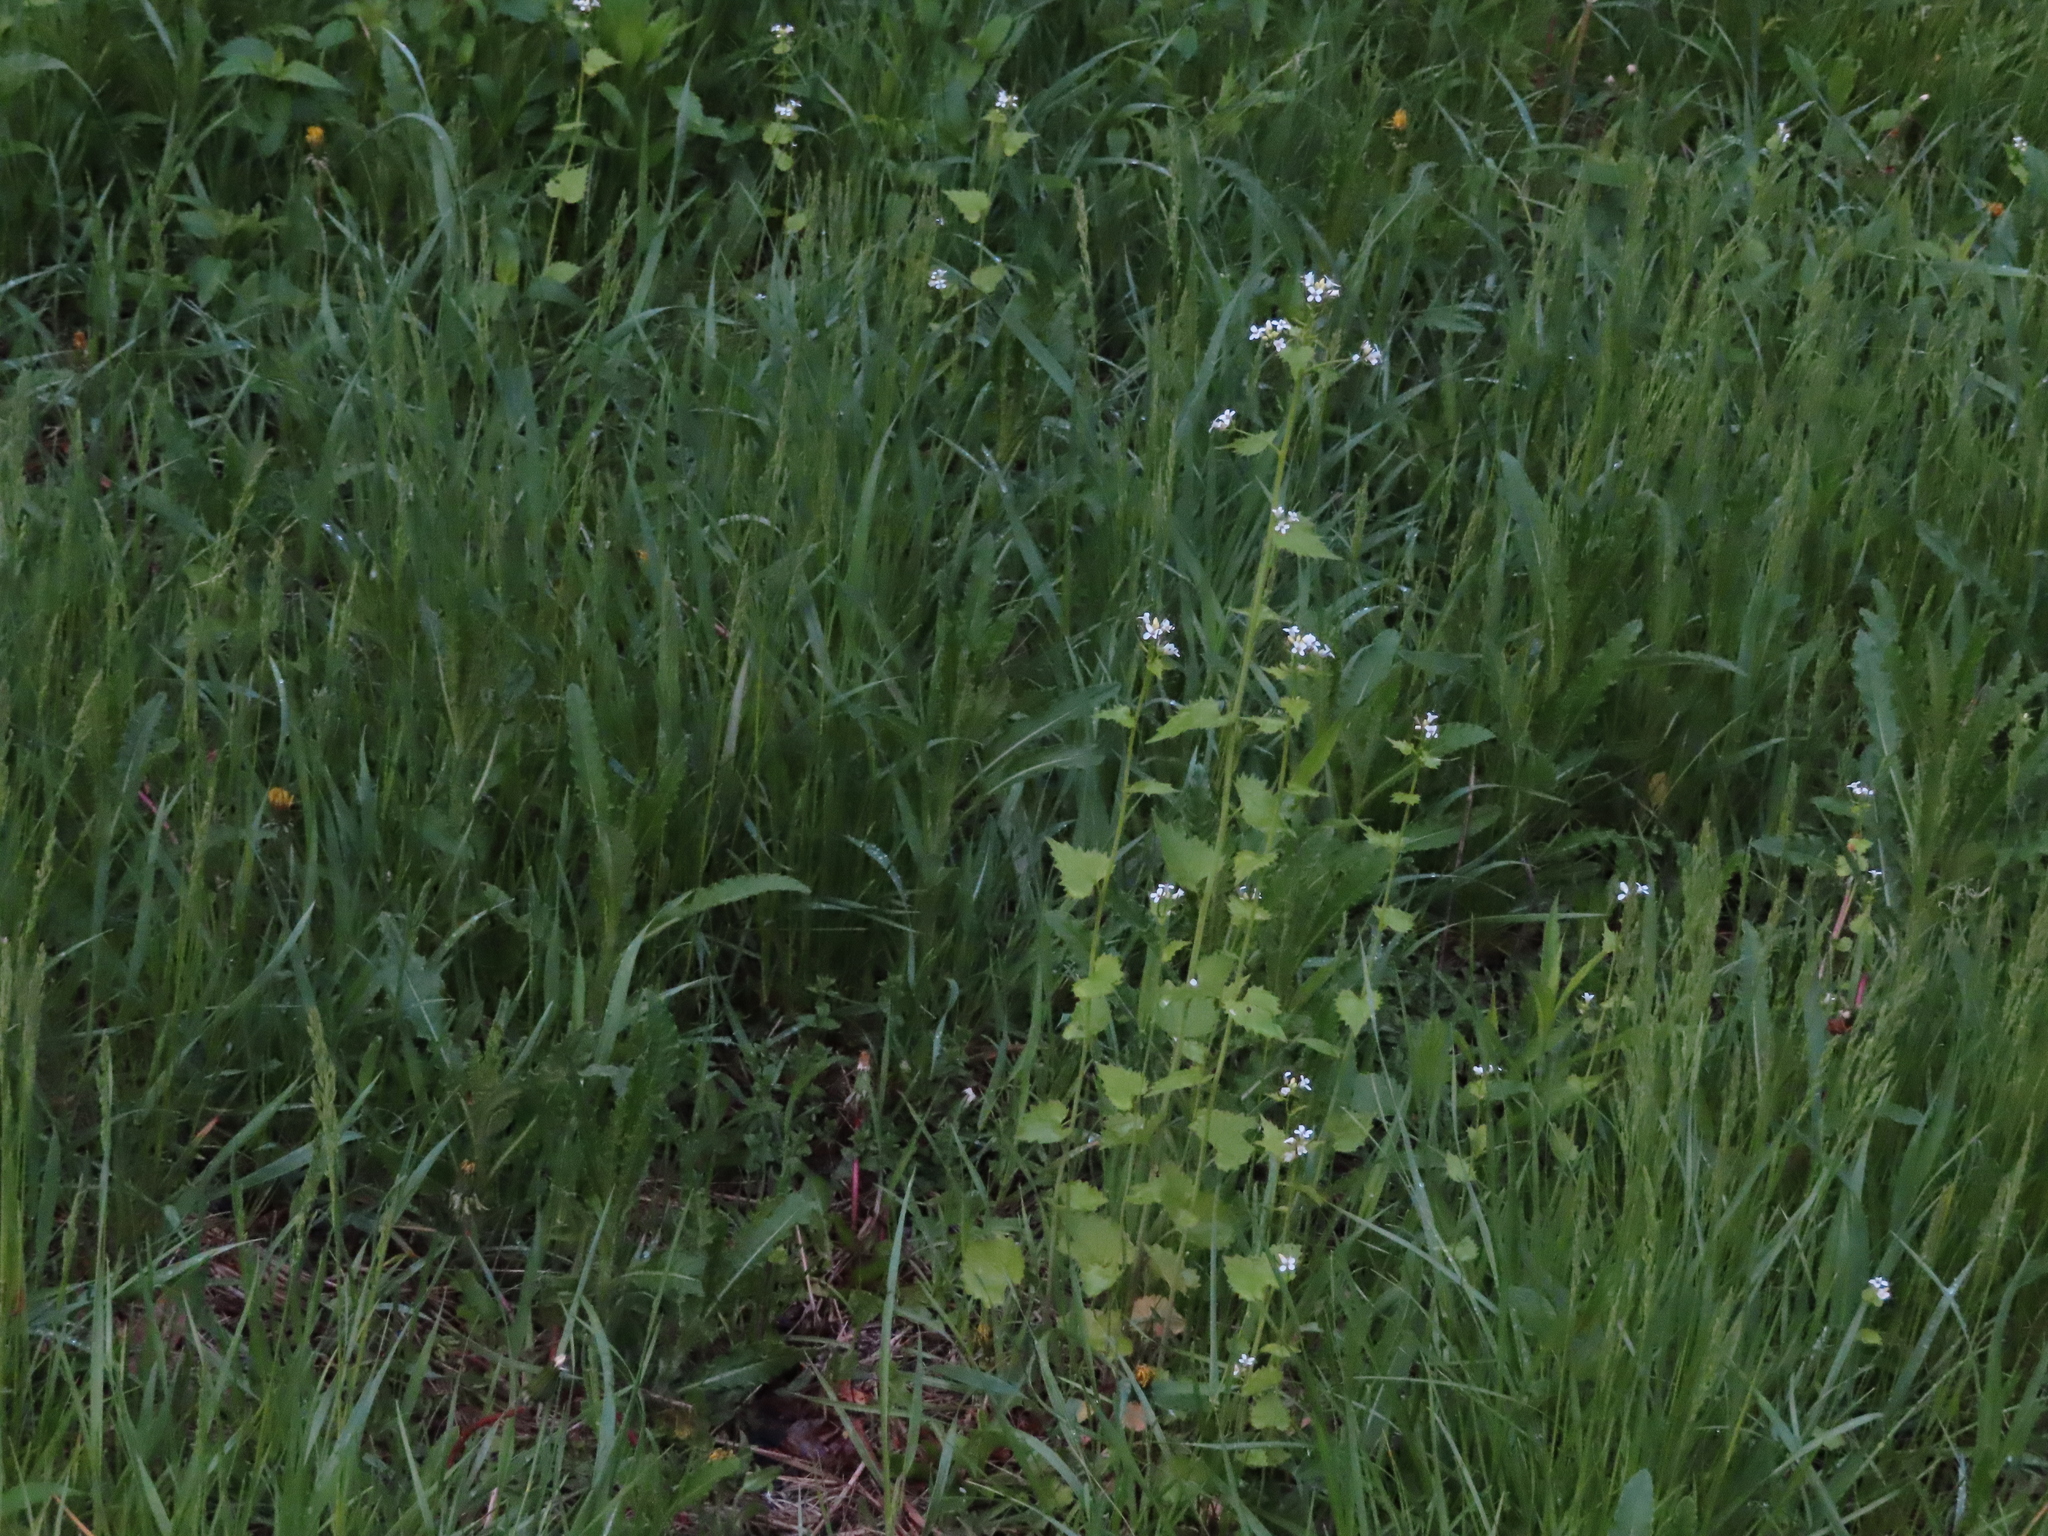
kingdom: Plantae
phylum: Tracheophyta
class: Magnoliopsida
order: Brassicales
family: Brassicaceae
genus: Alliaria
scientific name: Alliaria petiolata
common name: Garlic mustard
